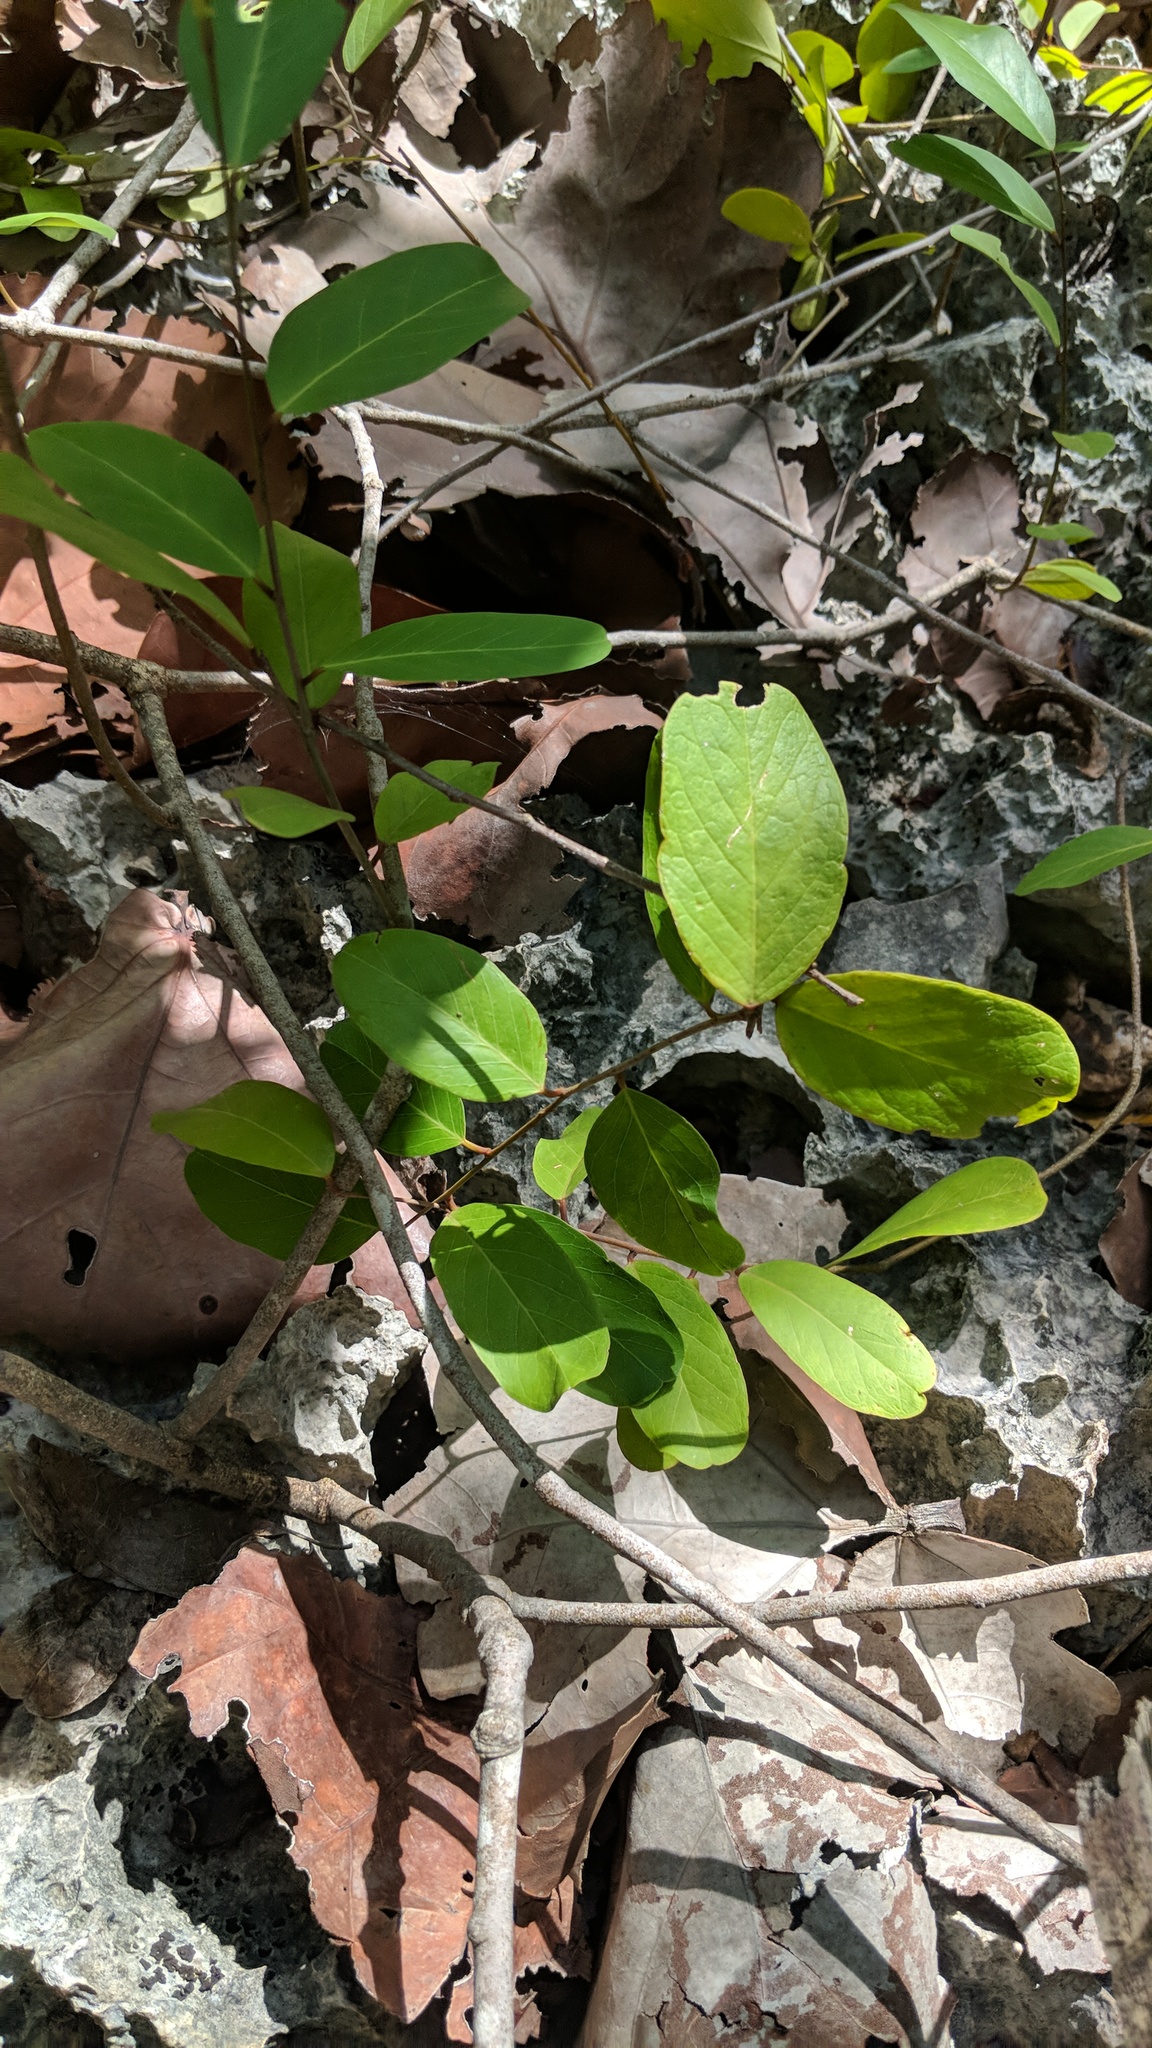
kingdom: Plantae
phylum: Tracheophyta
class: Magnoliopsida
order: Brassicales
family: Capparaceae
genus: Cynophalla
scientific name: Cynophalla flexuosa
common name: Capertree
